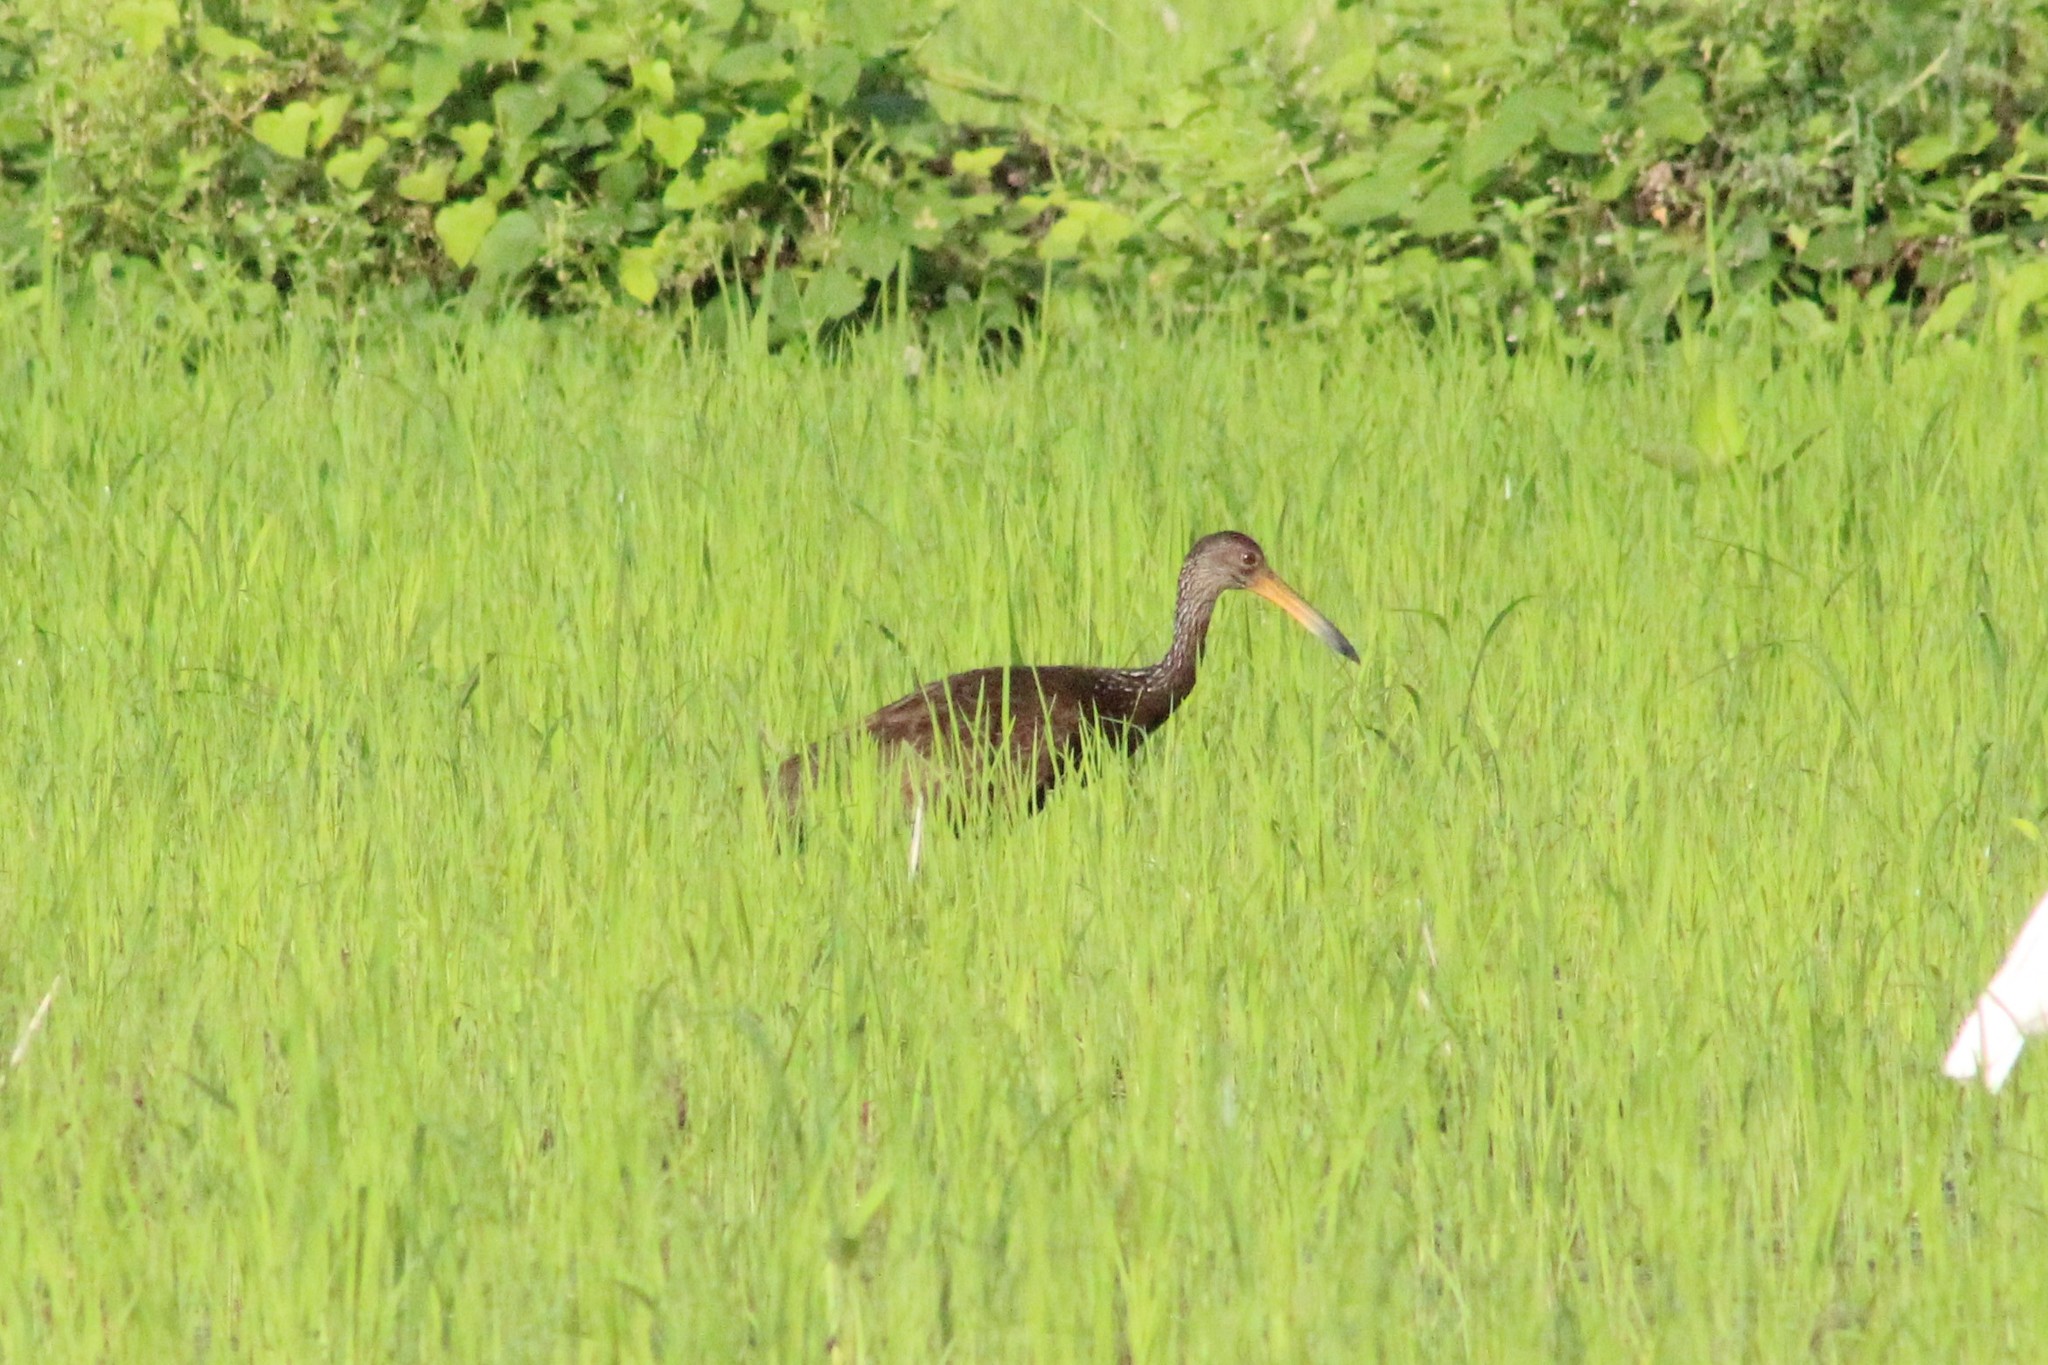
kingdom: Animalia
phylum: Chordata
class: Aves
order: Gruiformes
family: Aramidae
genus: Aramus
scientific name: Aramus guarauna
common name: Limpkin
